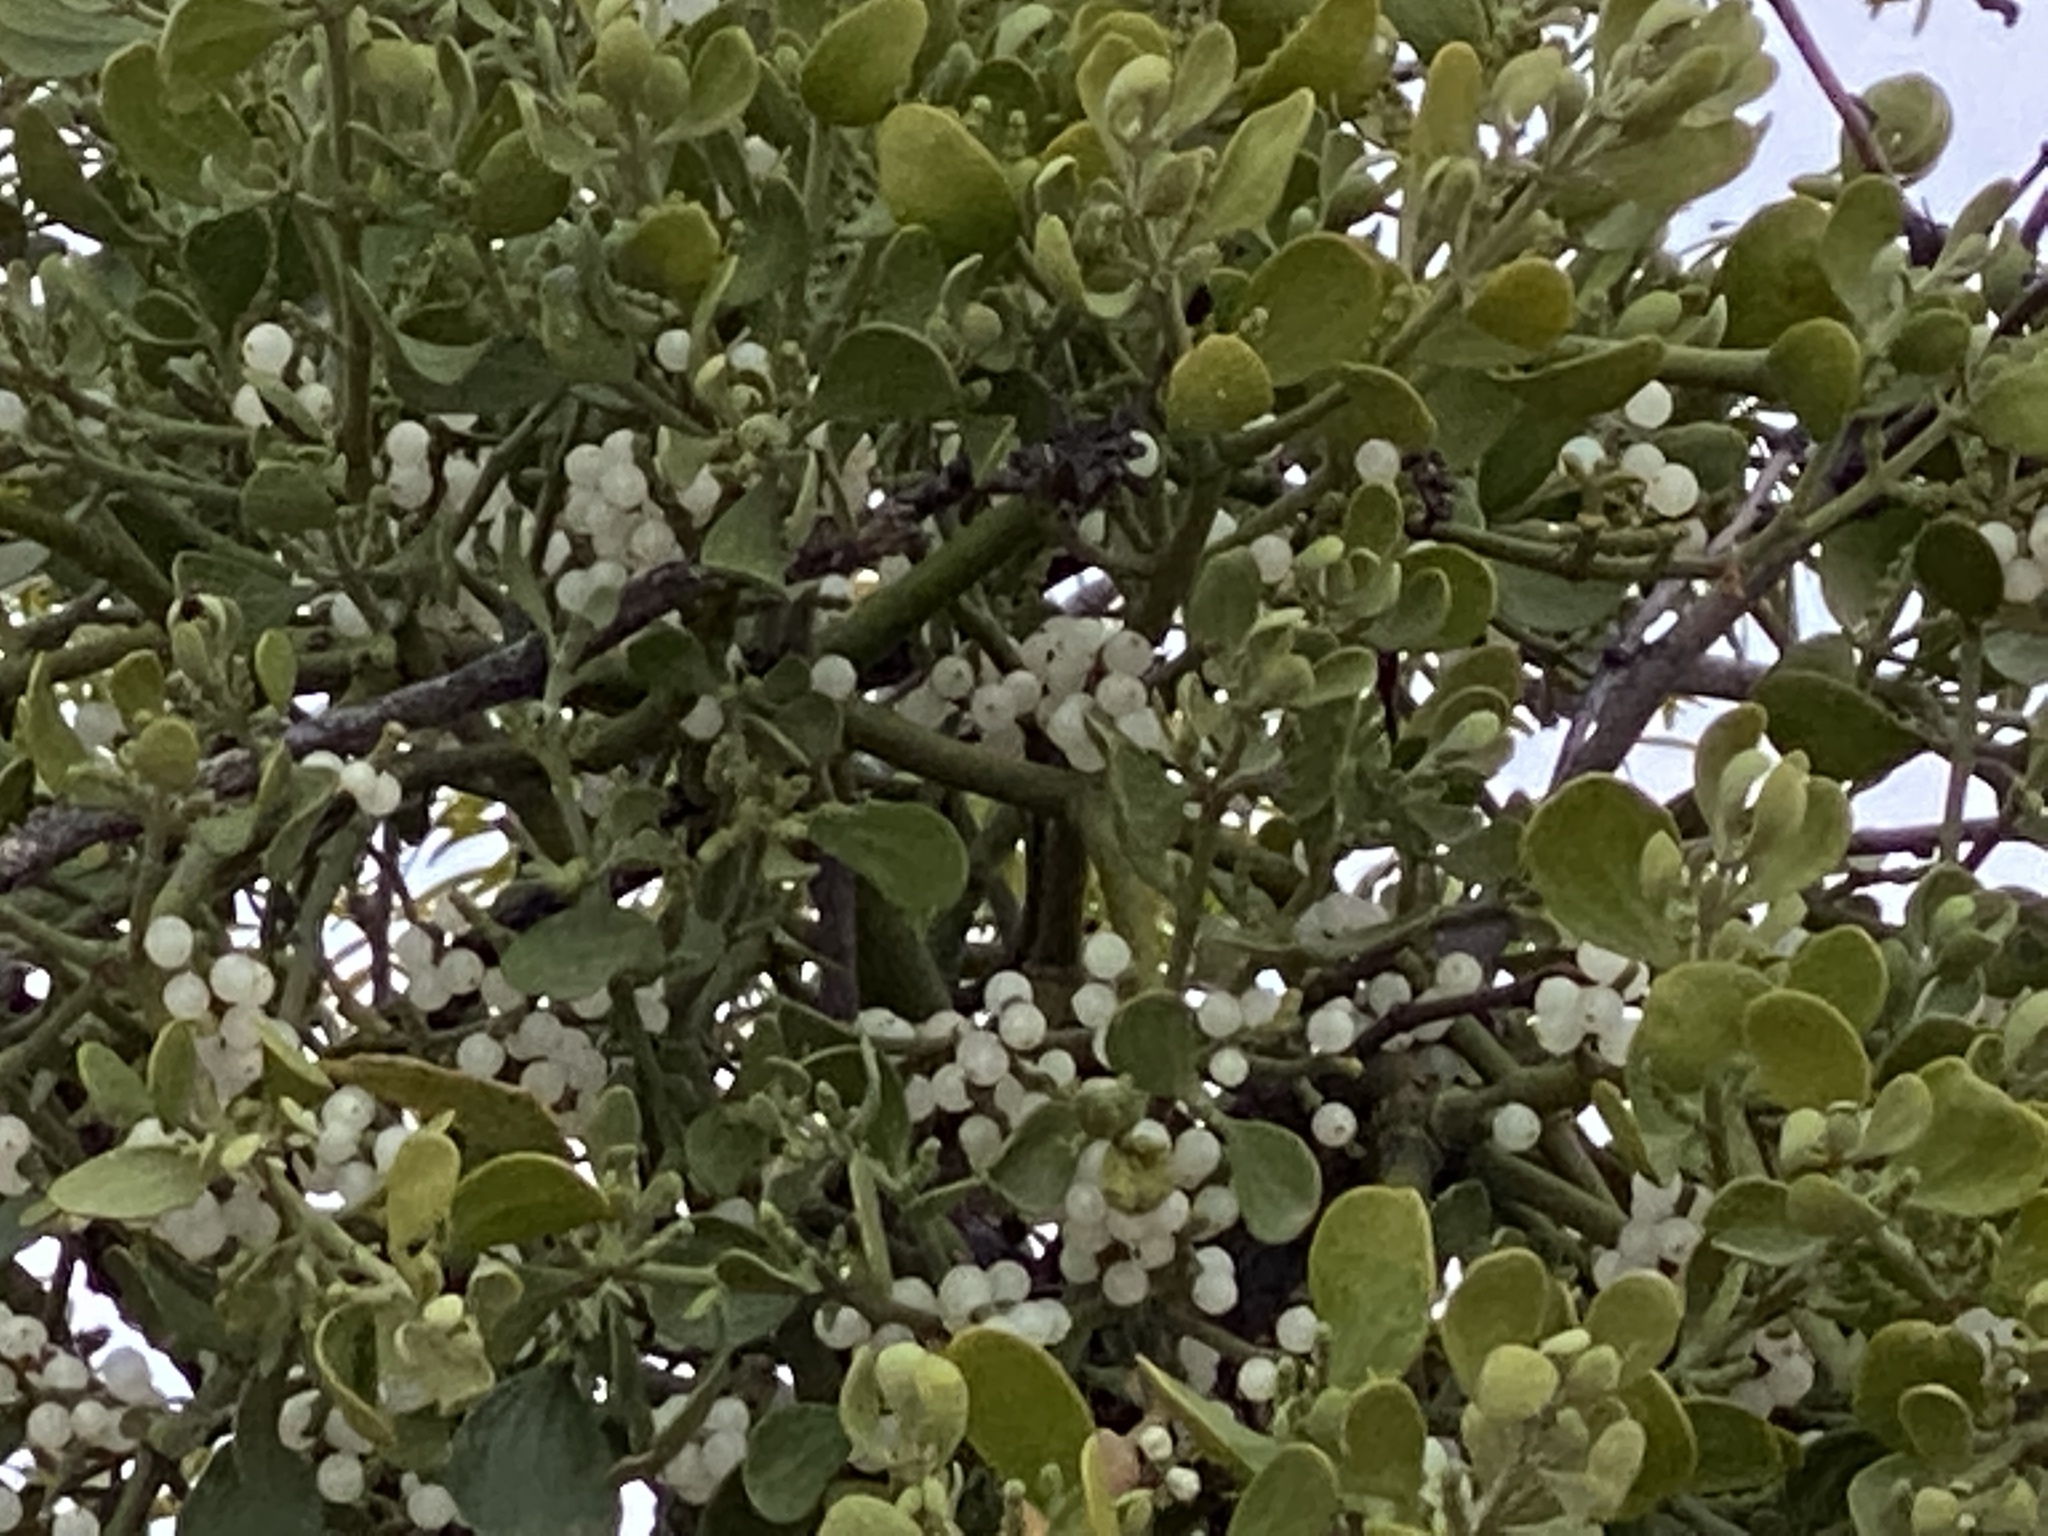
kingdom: Plantae
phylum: Tracheophyta
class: Magnoliopsida
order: Santalales
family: Viscaceae
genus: Phoradendron
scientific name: Phoradendron leucarpum
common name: Pacific mistletoe
